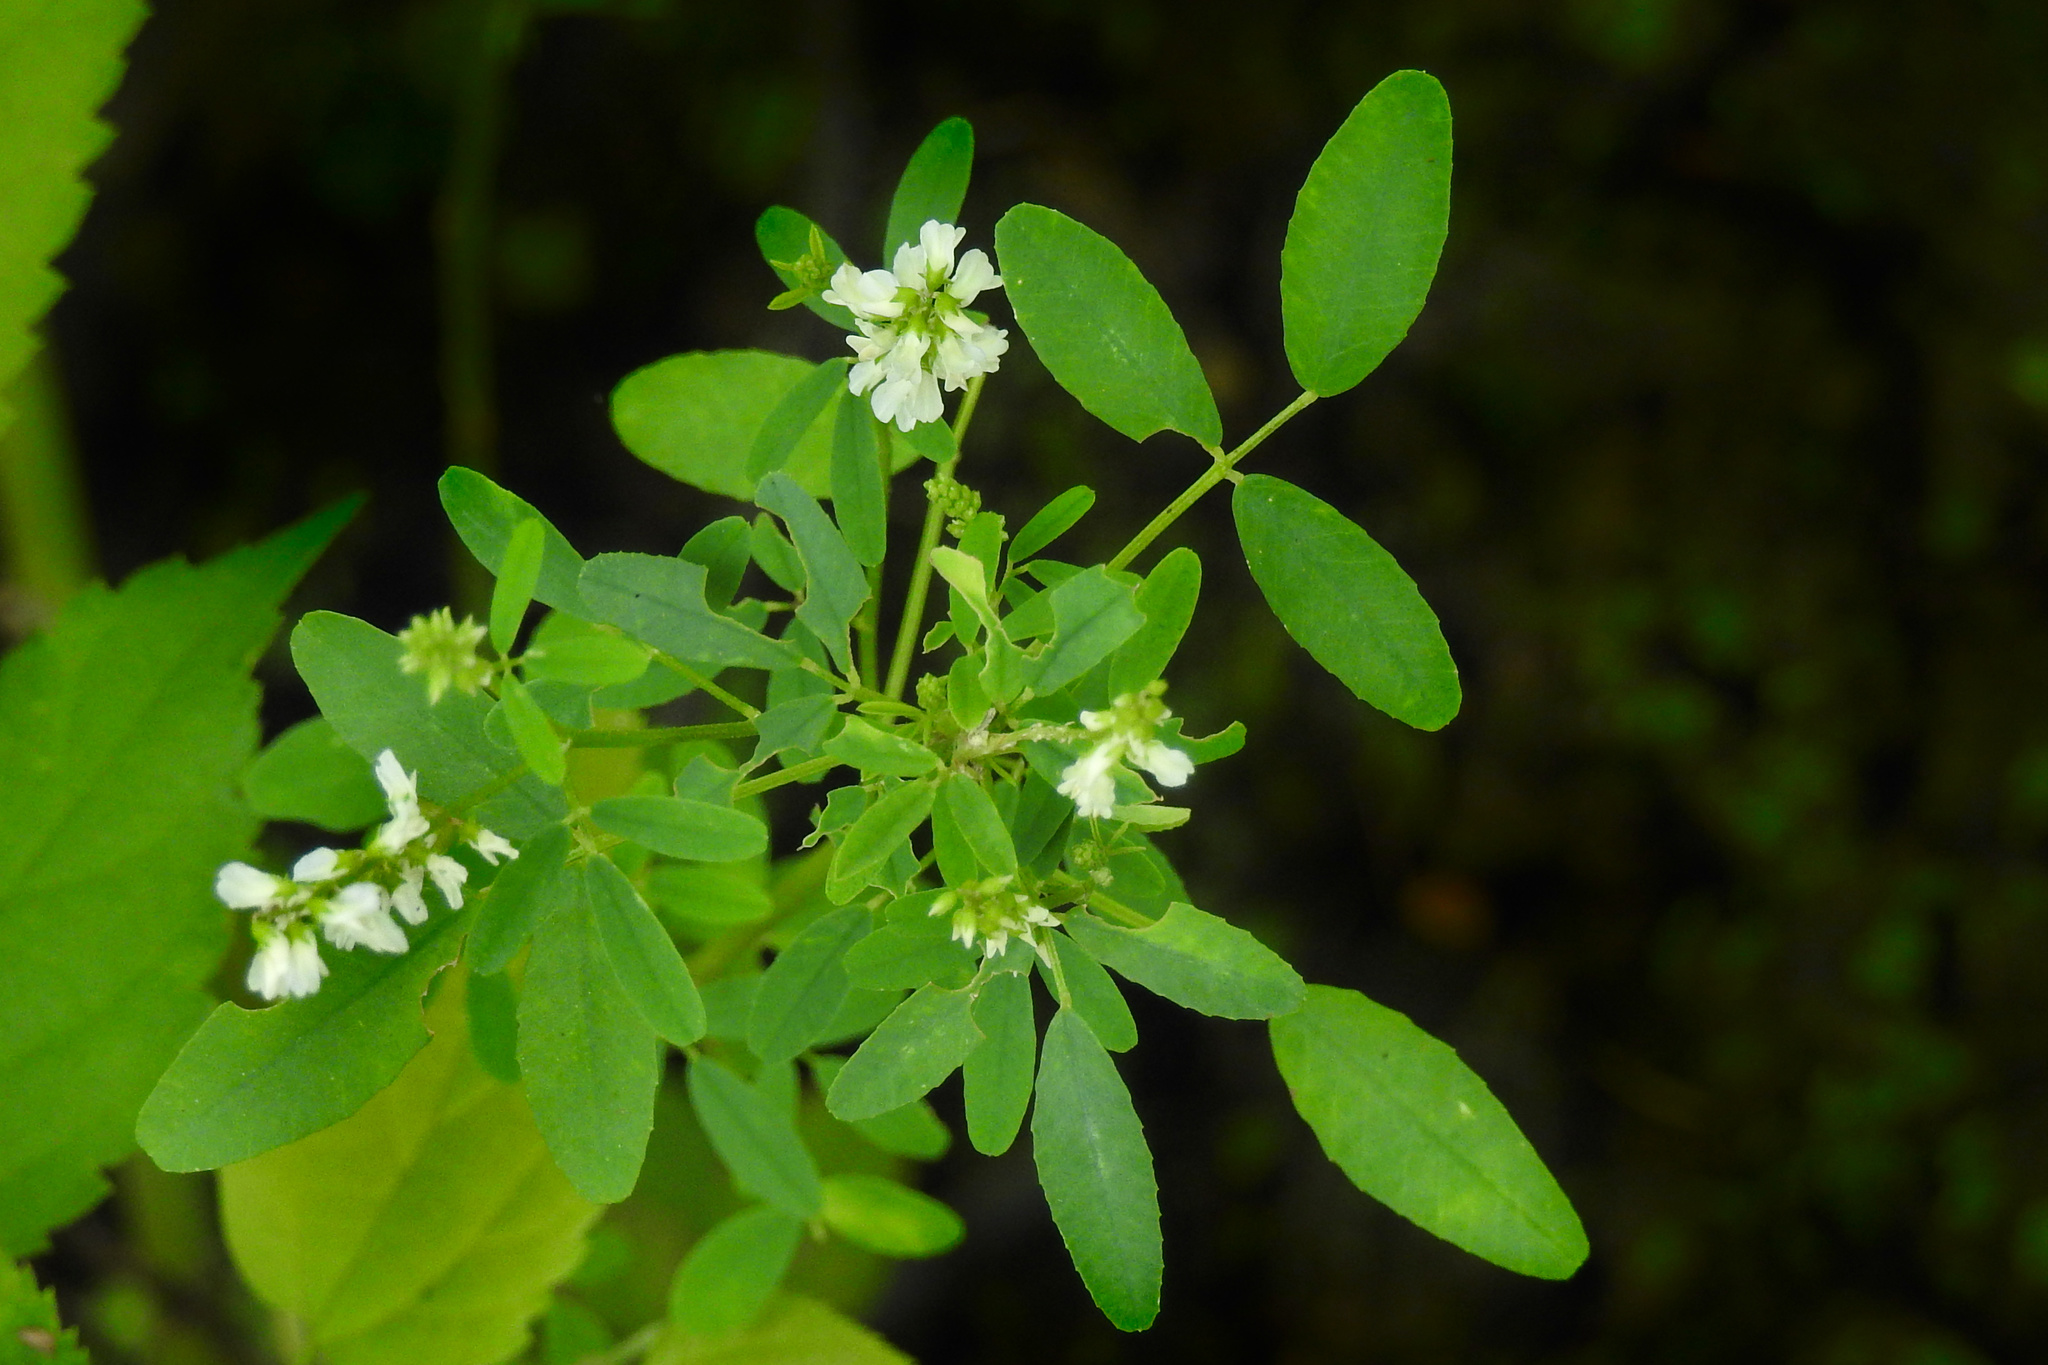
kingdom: Plantae
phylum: Tracheophyta
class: Magnoliopsida
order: Fabales
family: Fabaceae
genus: Melilotus
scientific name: Melilotus albus
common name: White melilot
